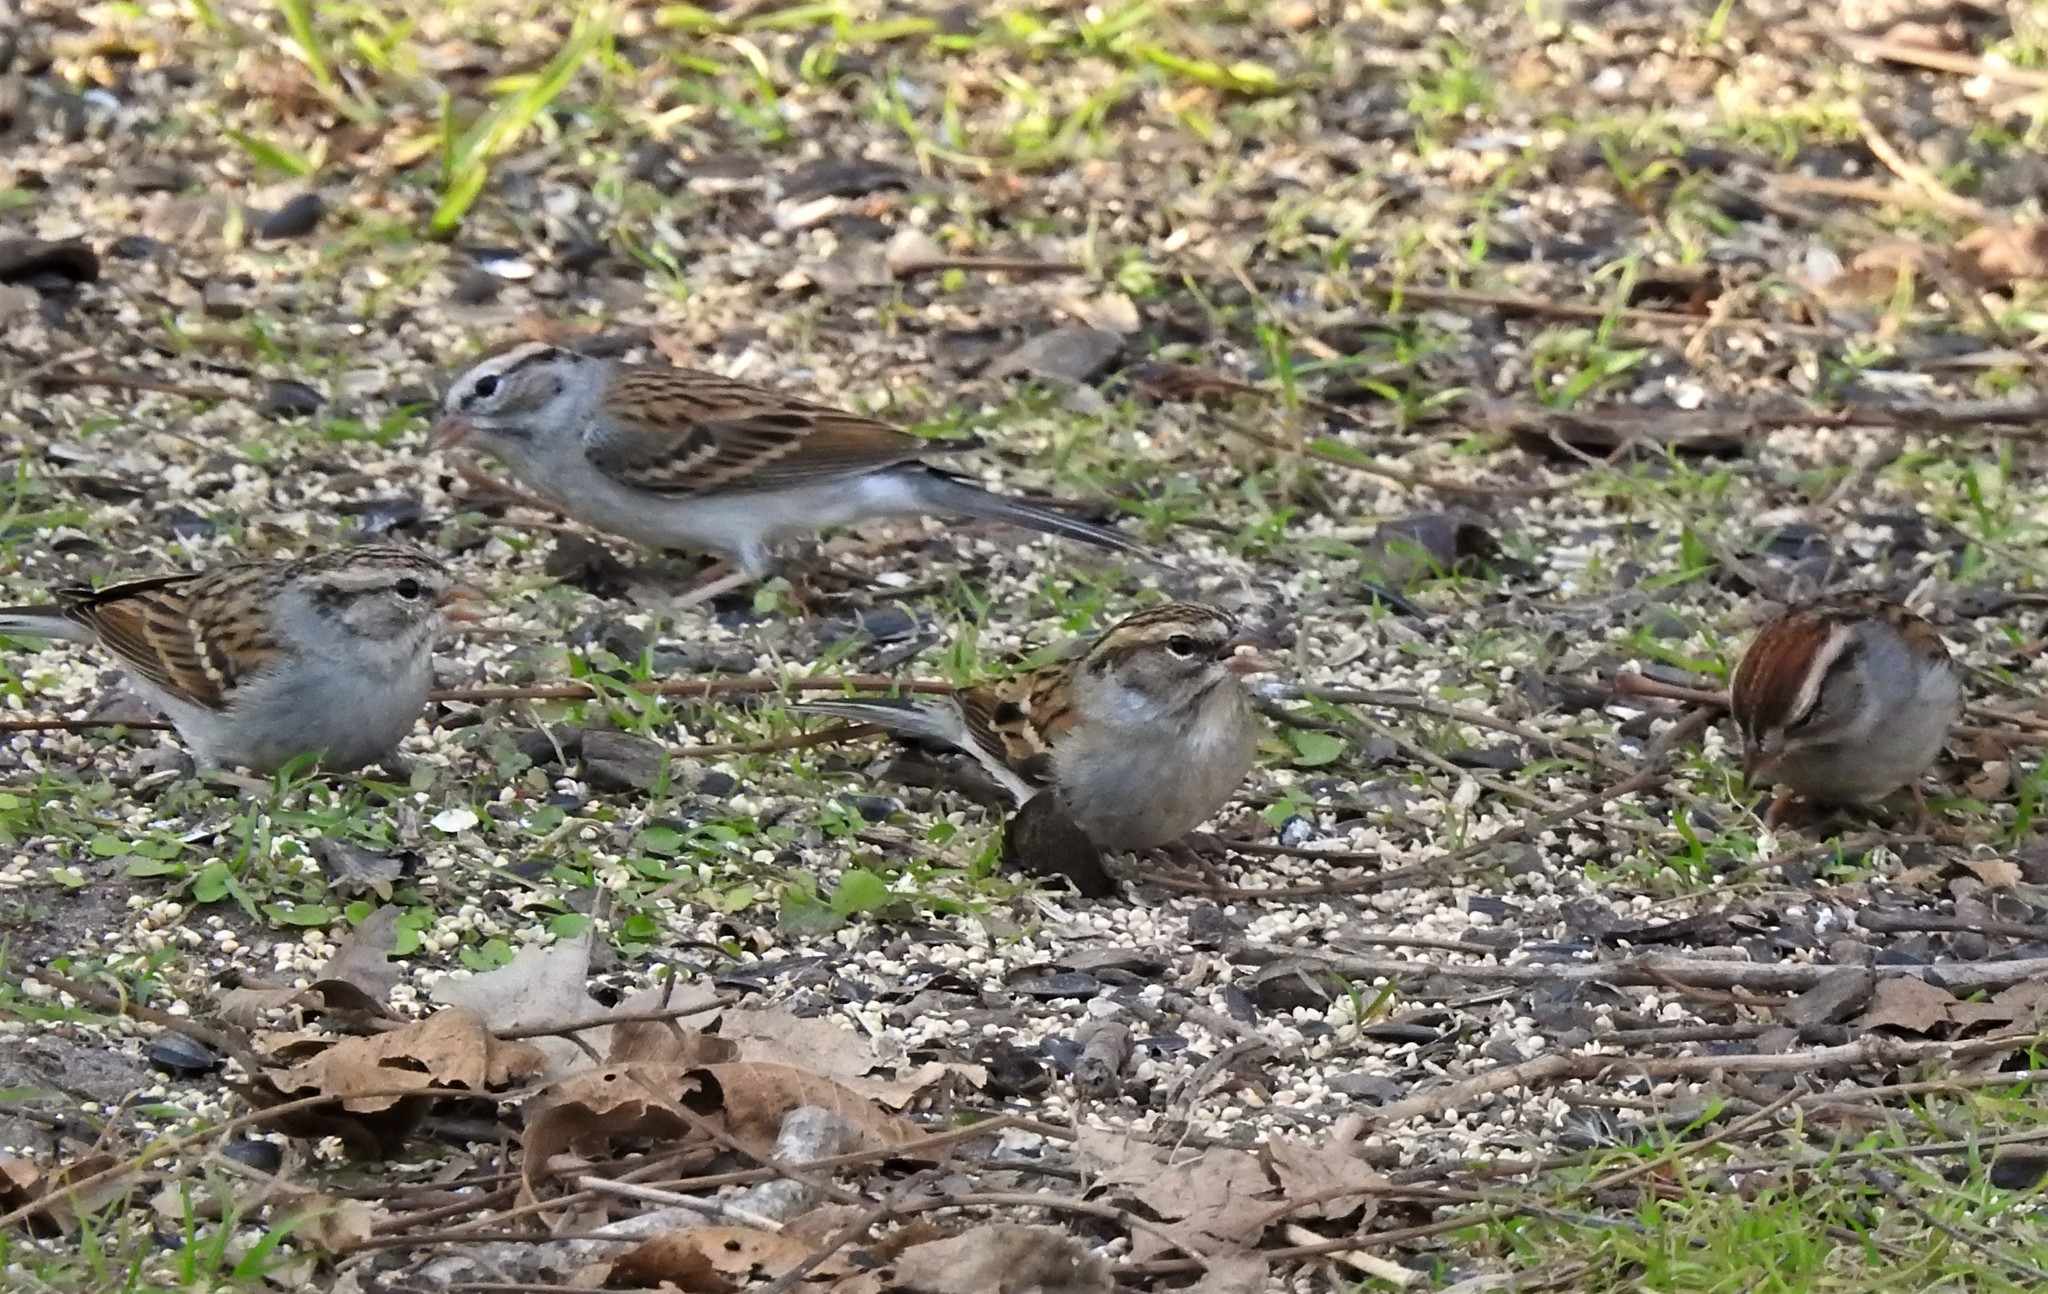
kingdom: Animalia
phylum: Chordata
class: Aves
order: Passeriformes
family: Passerellidae
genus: Spizella
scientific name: Spizella passerina
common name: Chipping sparrow
